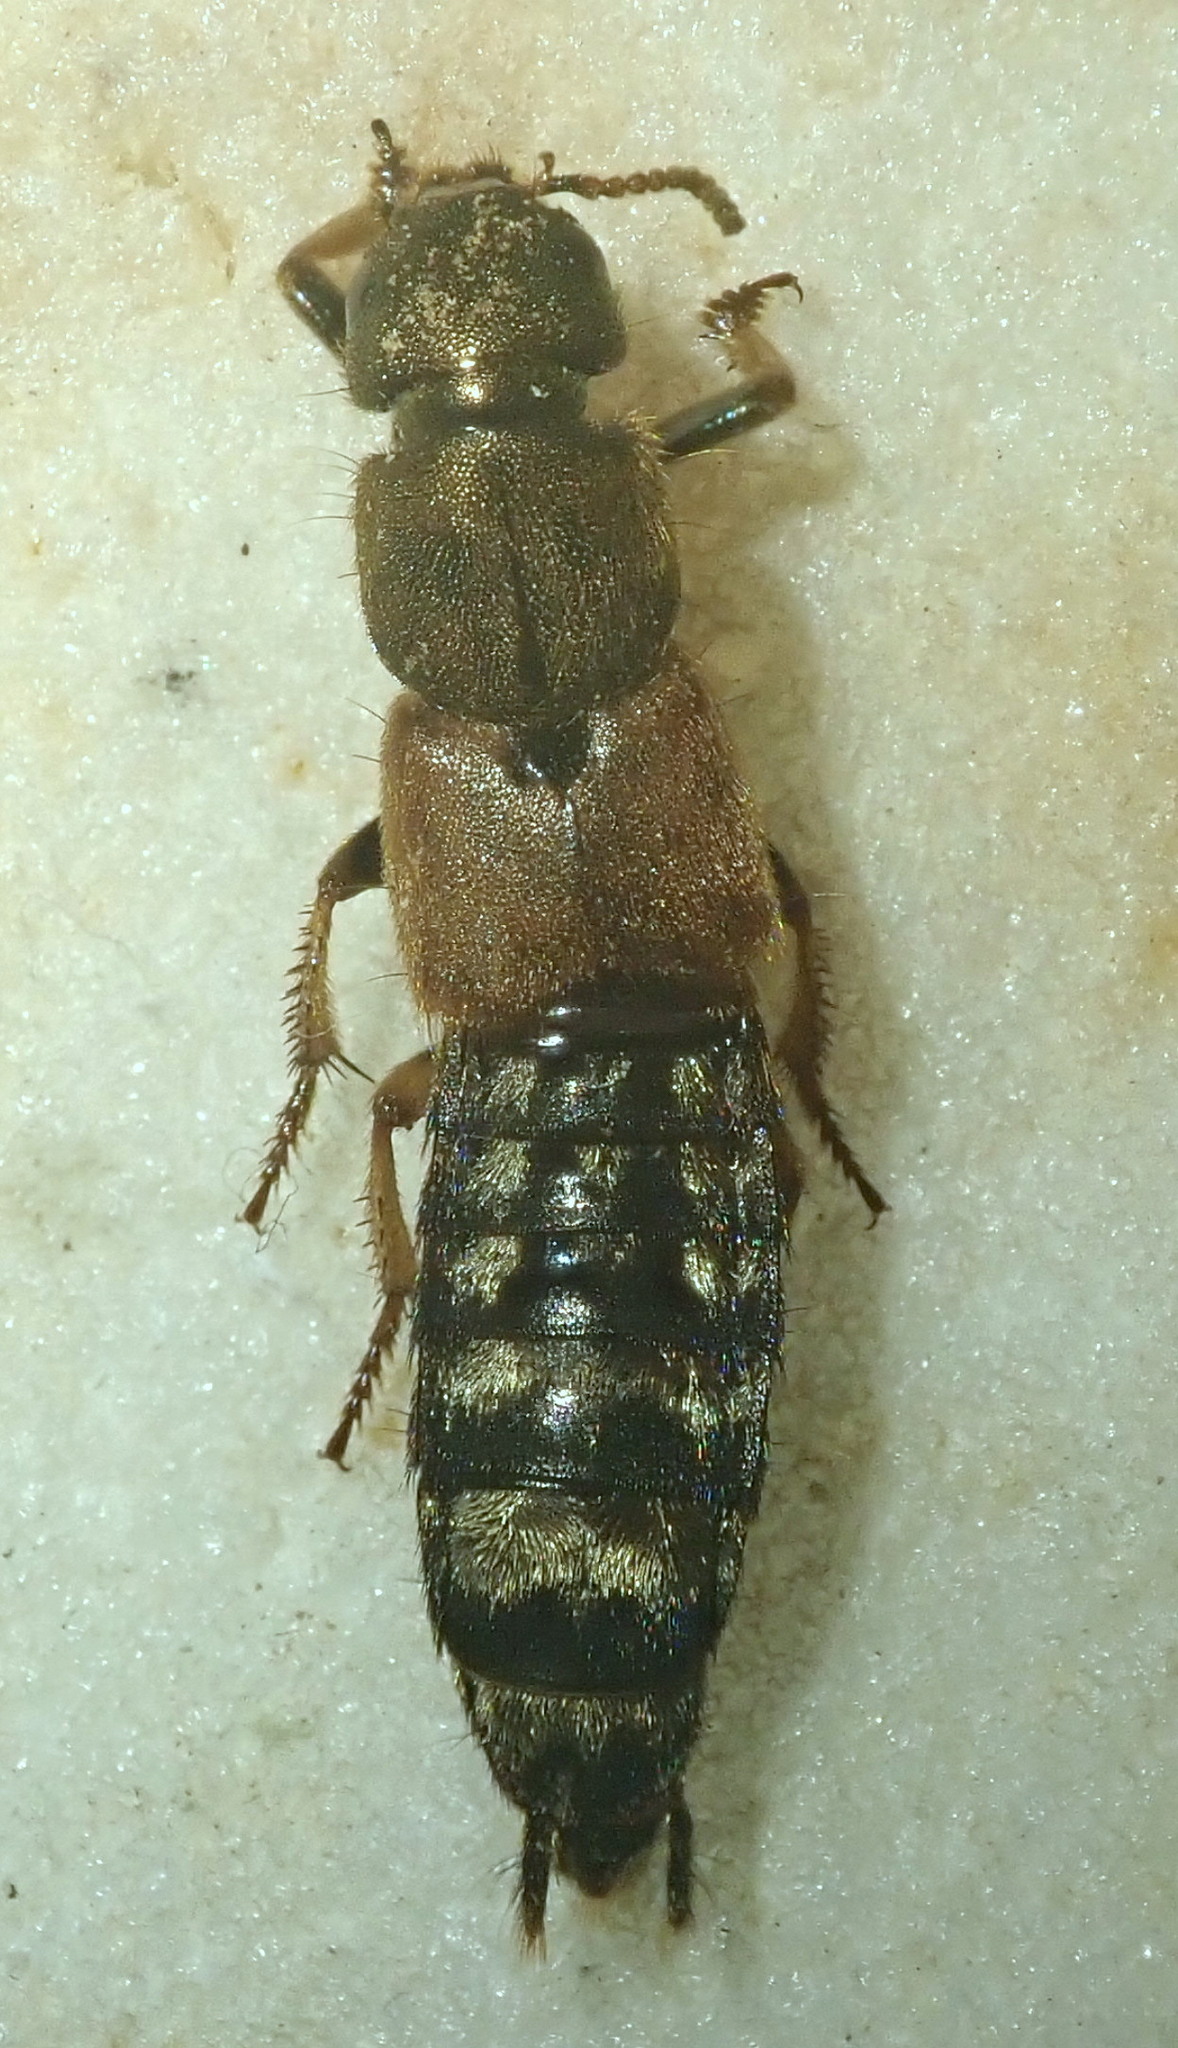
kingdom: Animalia
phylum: Arthropoda
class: Insecta
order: Coleoptera
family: Staphylinidae
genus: Platydracus
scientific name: Platydracus flavopunctatus
